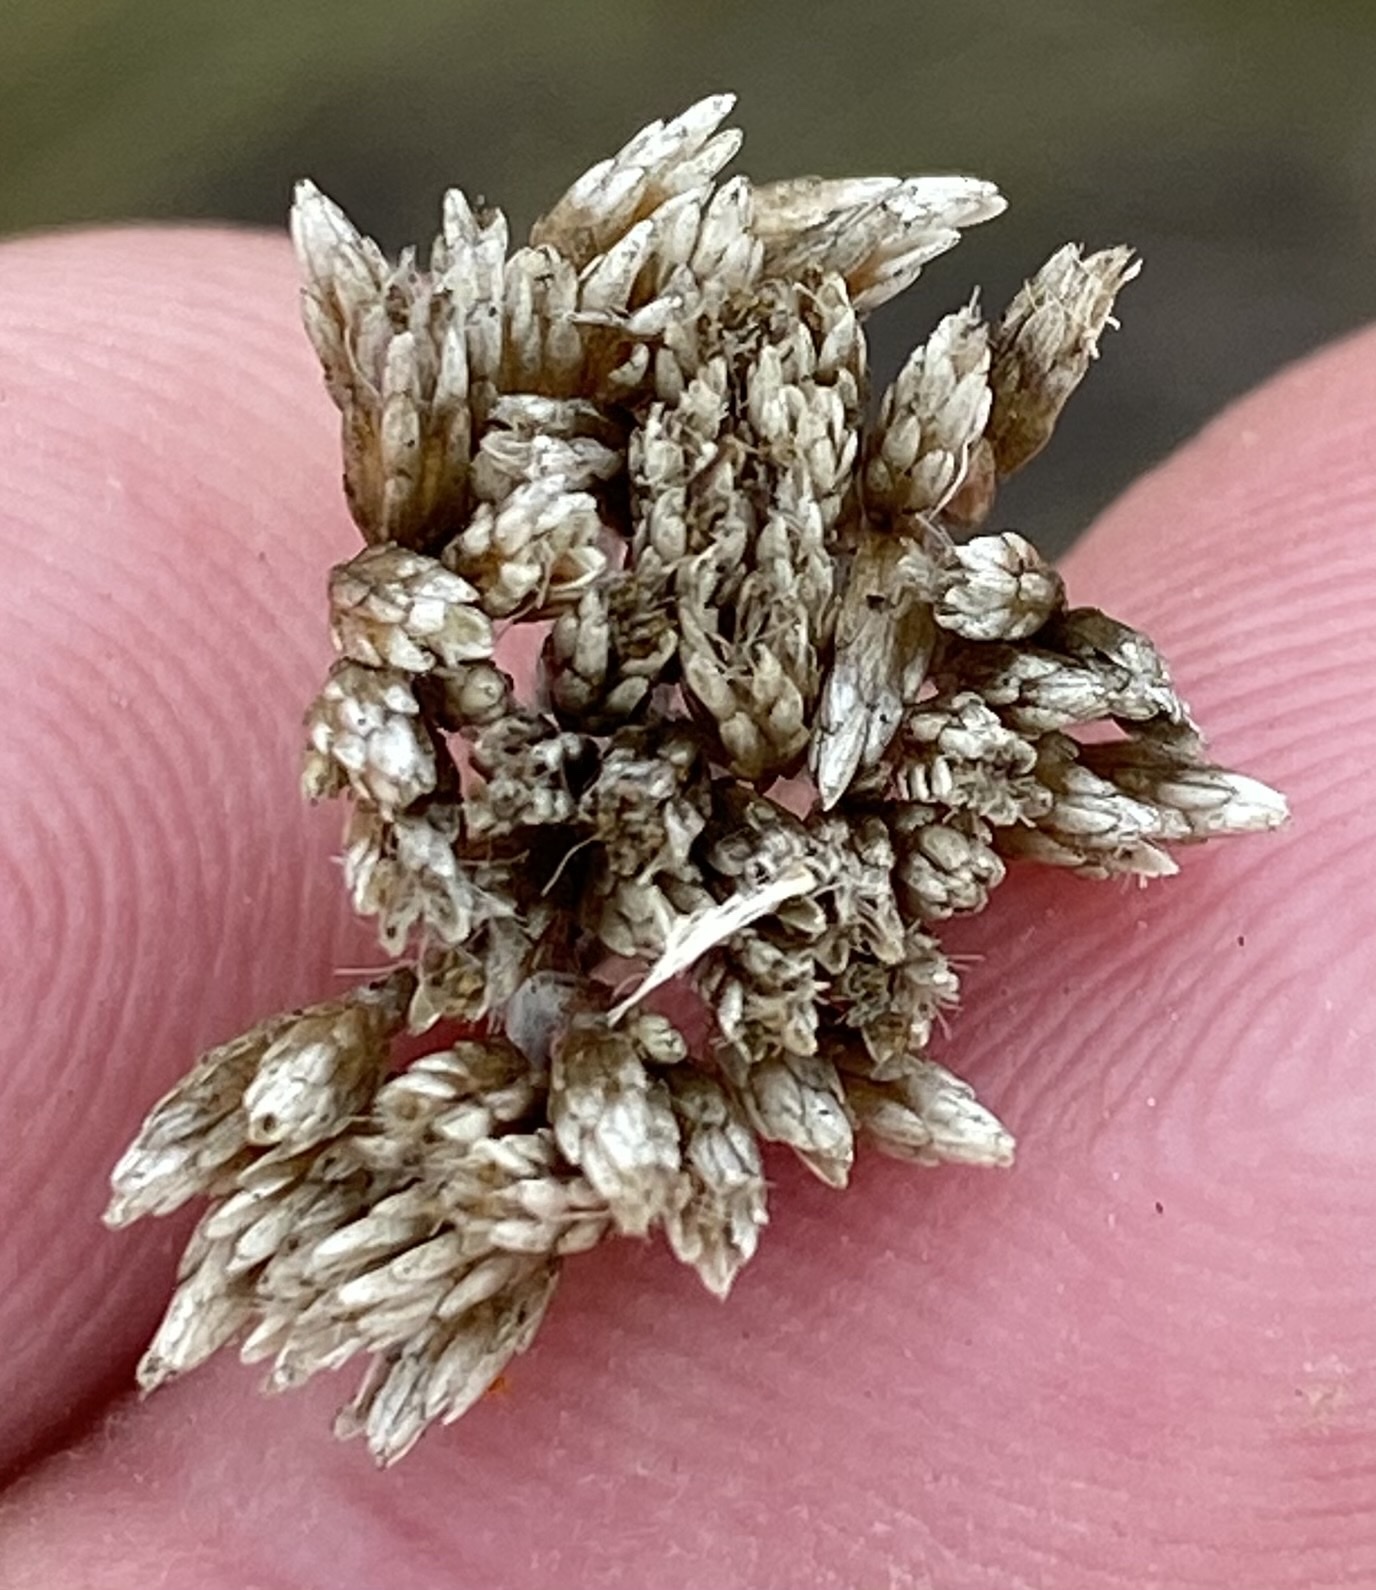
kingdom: Plantae
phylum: Tracheophyta
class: Magnoliopsida
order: Asterales
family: Asteraceae
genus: Helichrysum
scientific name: Helichrysum zeyheri
